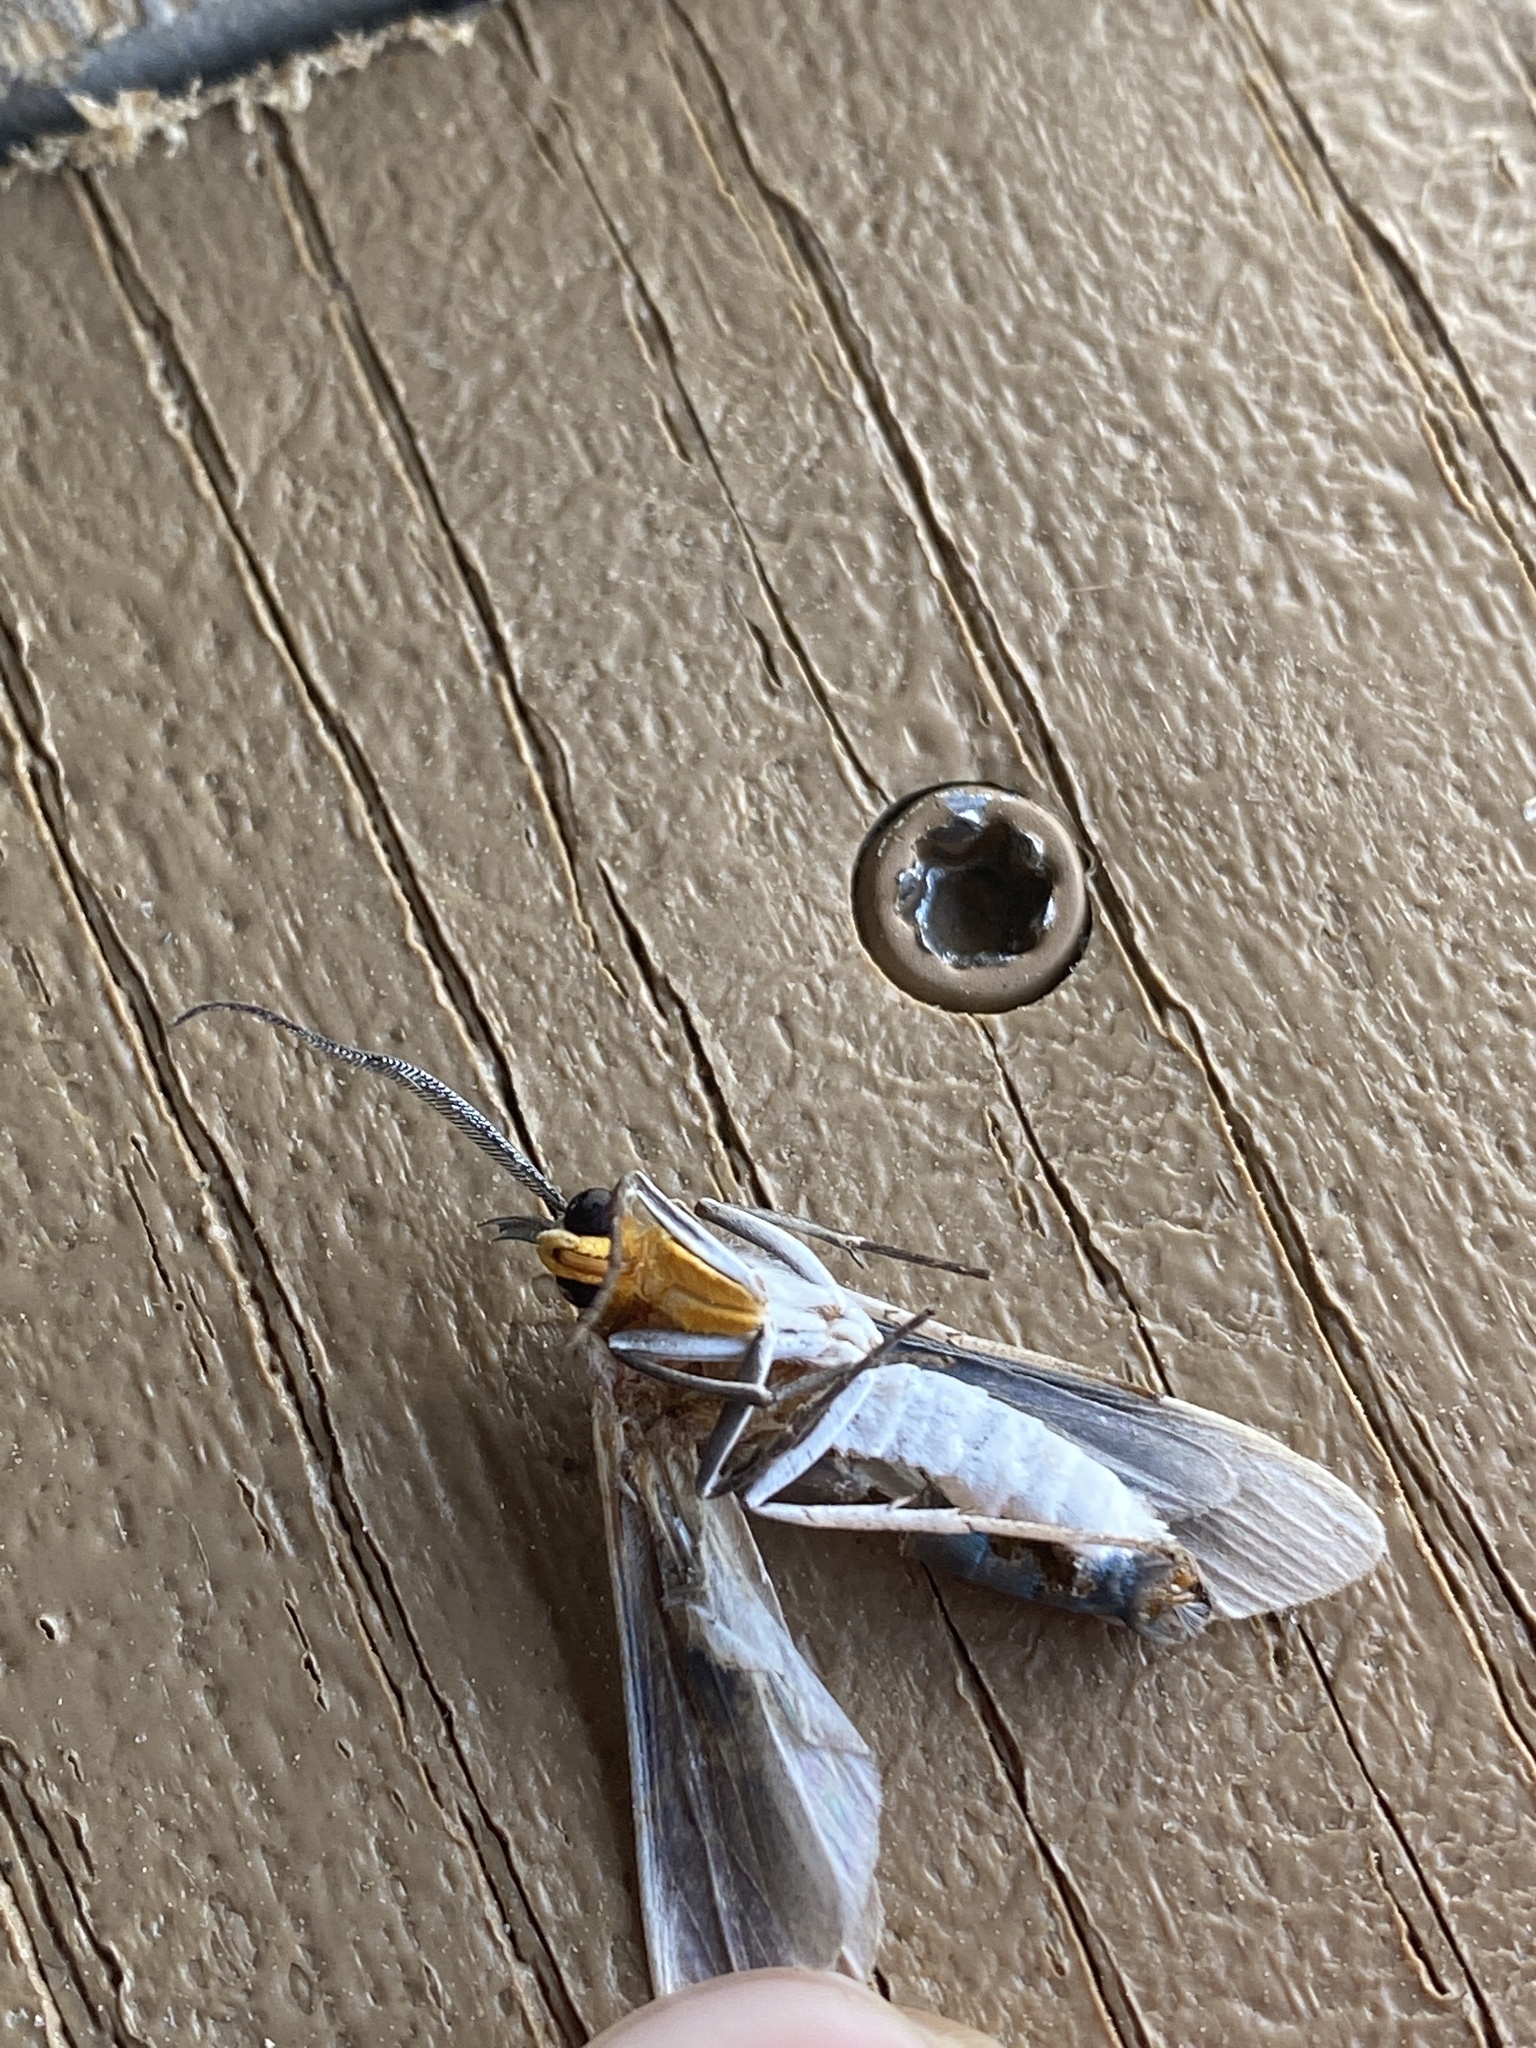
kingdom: Animalia
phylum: Arthropoda
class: Insecta
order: Lepidoptera
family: Erebidae
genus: Lymire
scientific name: Lymire edwardsii
